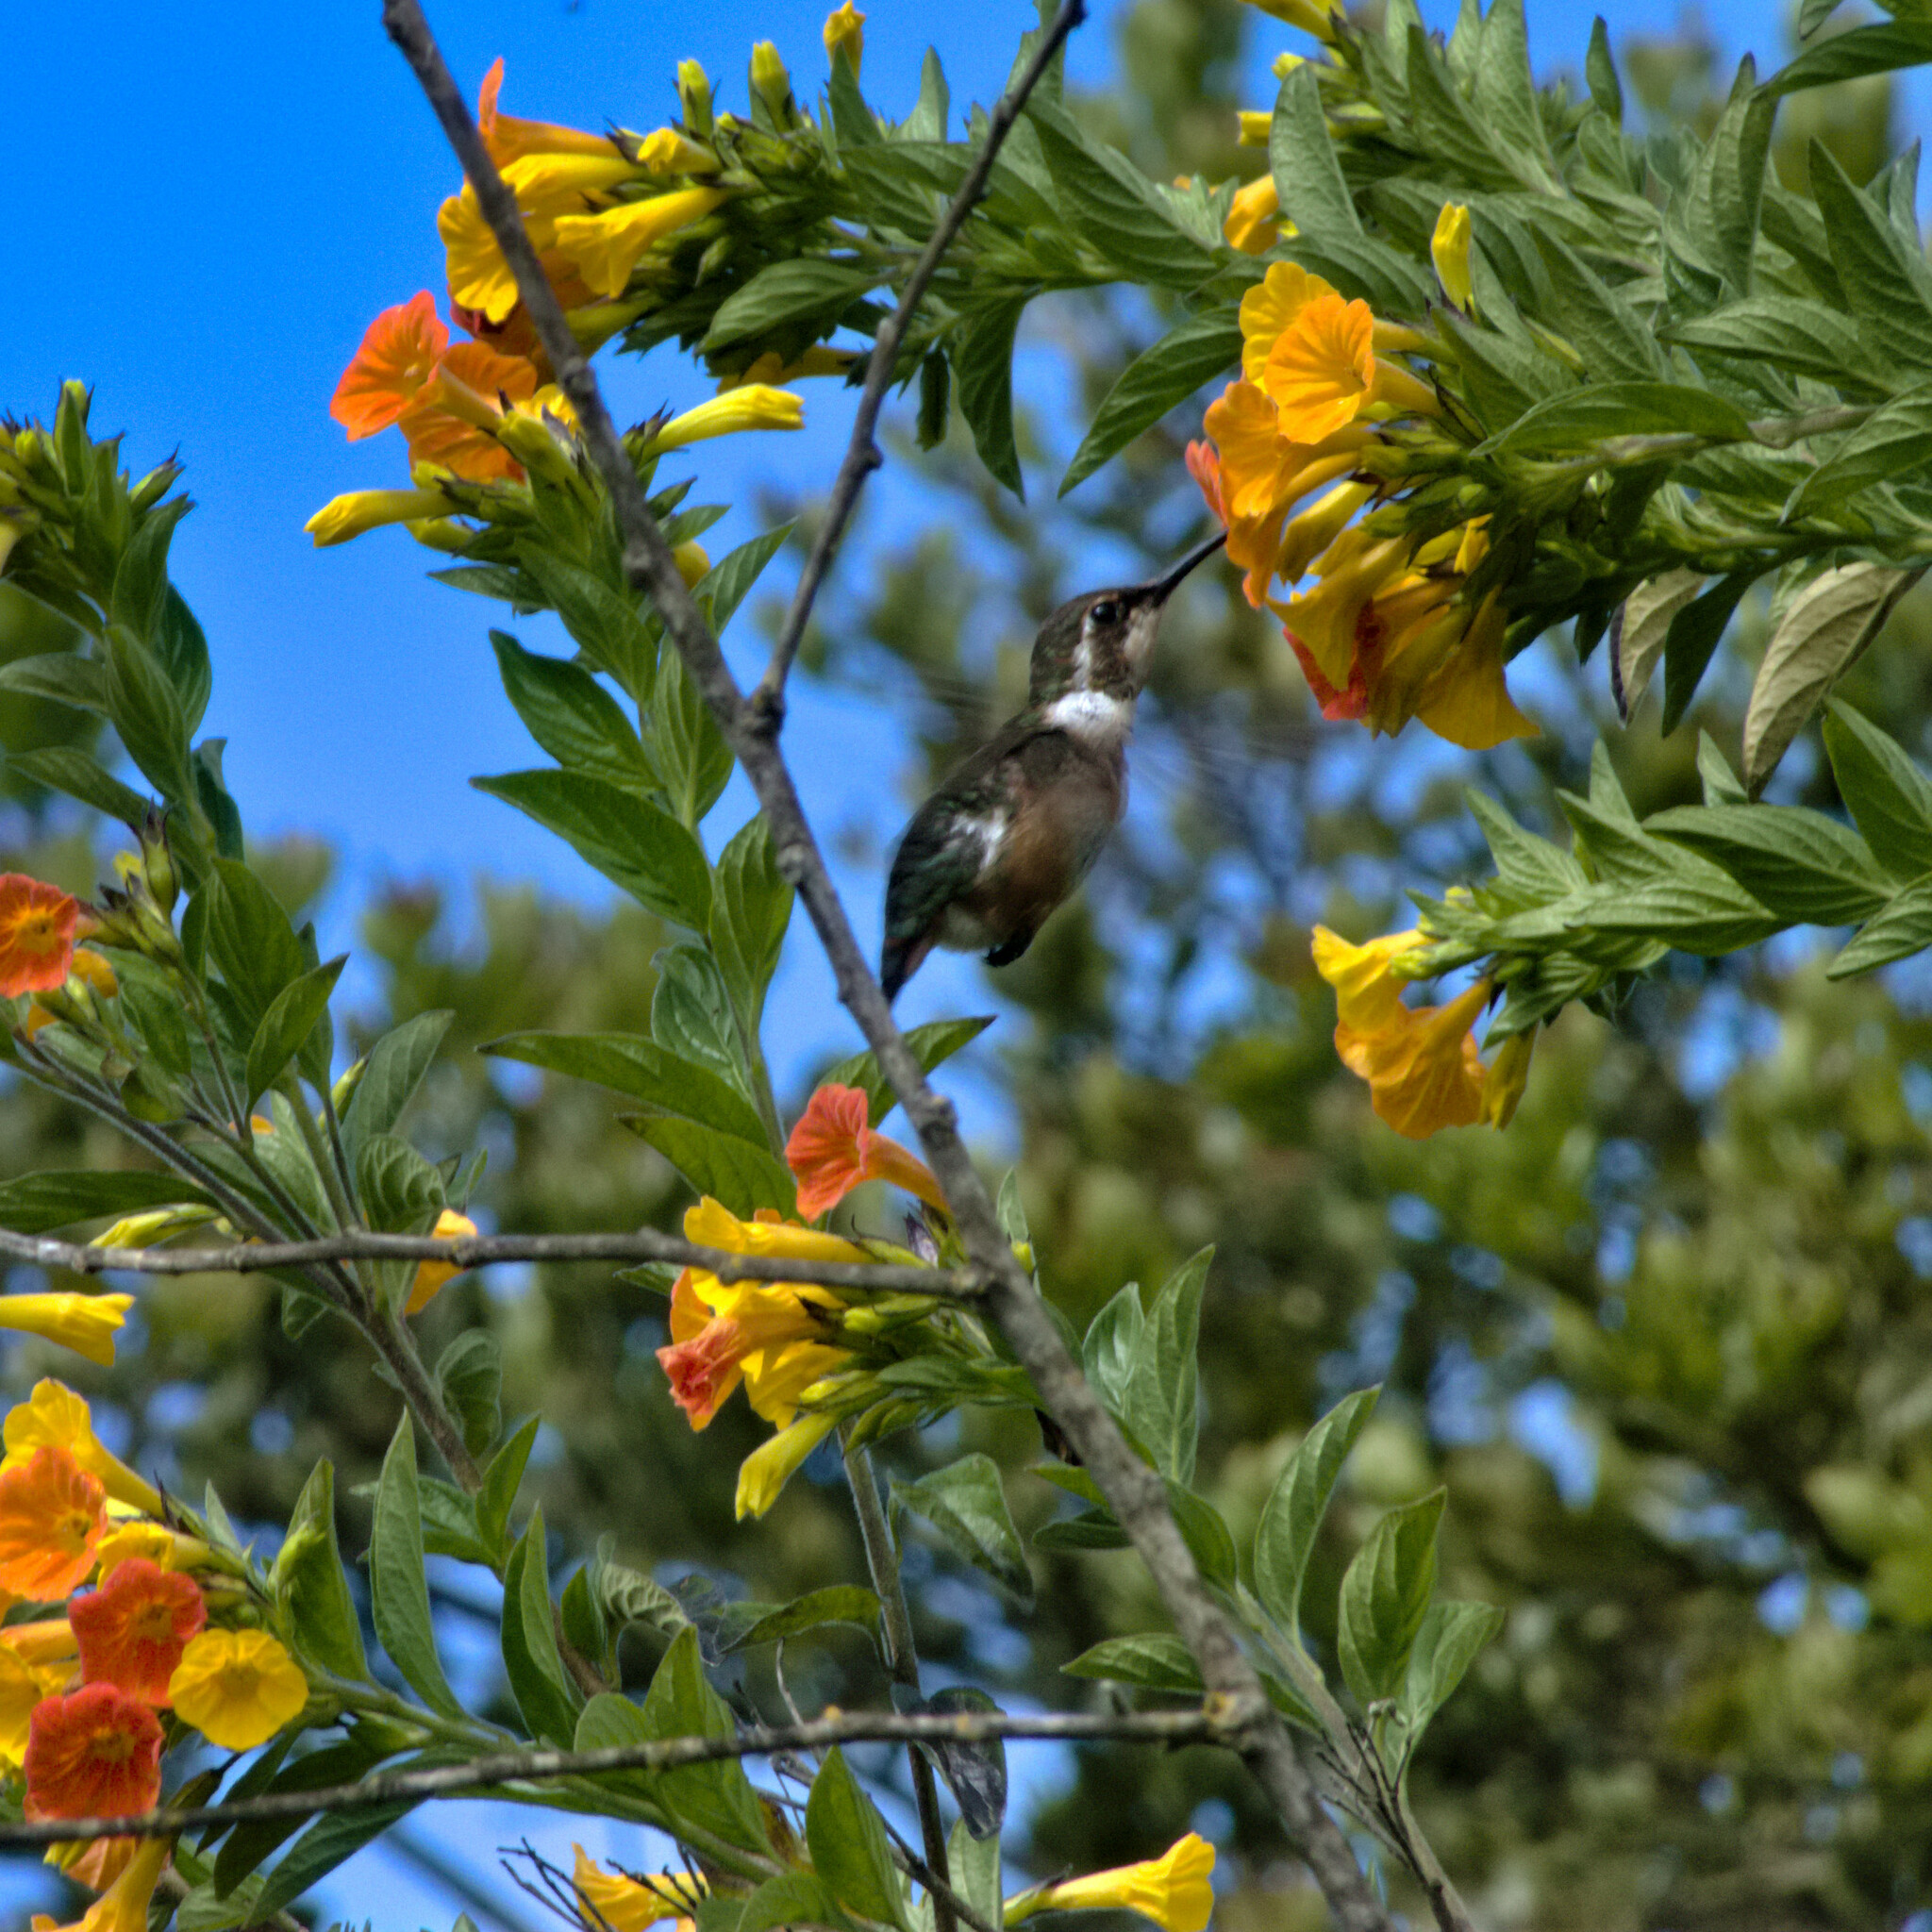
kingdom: Animalia
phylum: Chordata
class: Aves
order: Apodiformes
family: Trochilidae
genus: Chaetocercus
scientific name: Chaetocercus mulsant
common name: White-bellied woodstar
